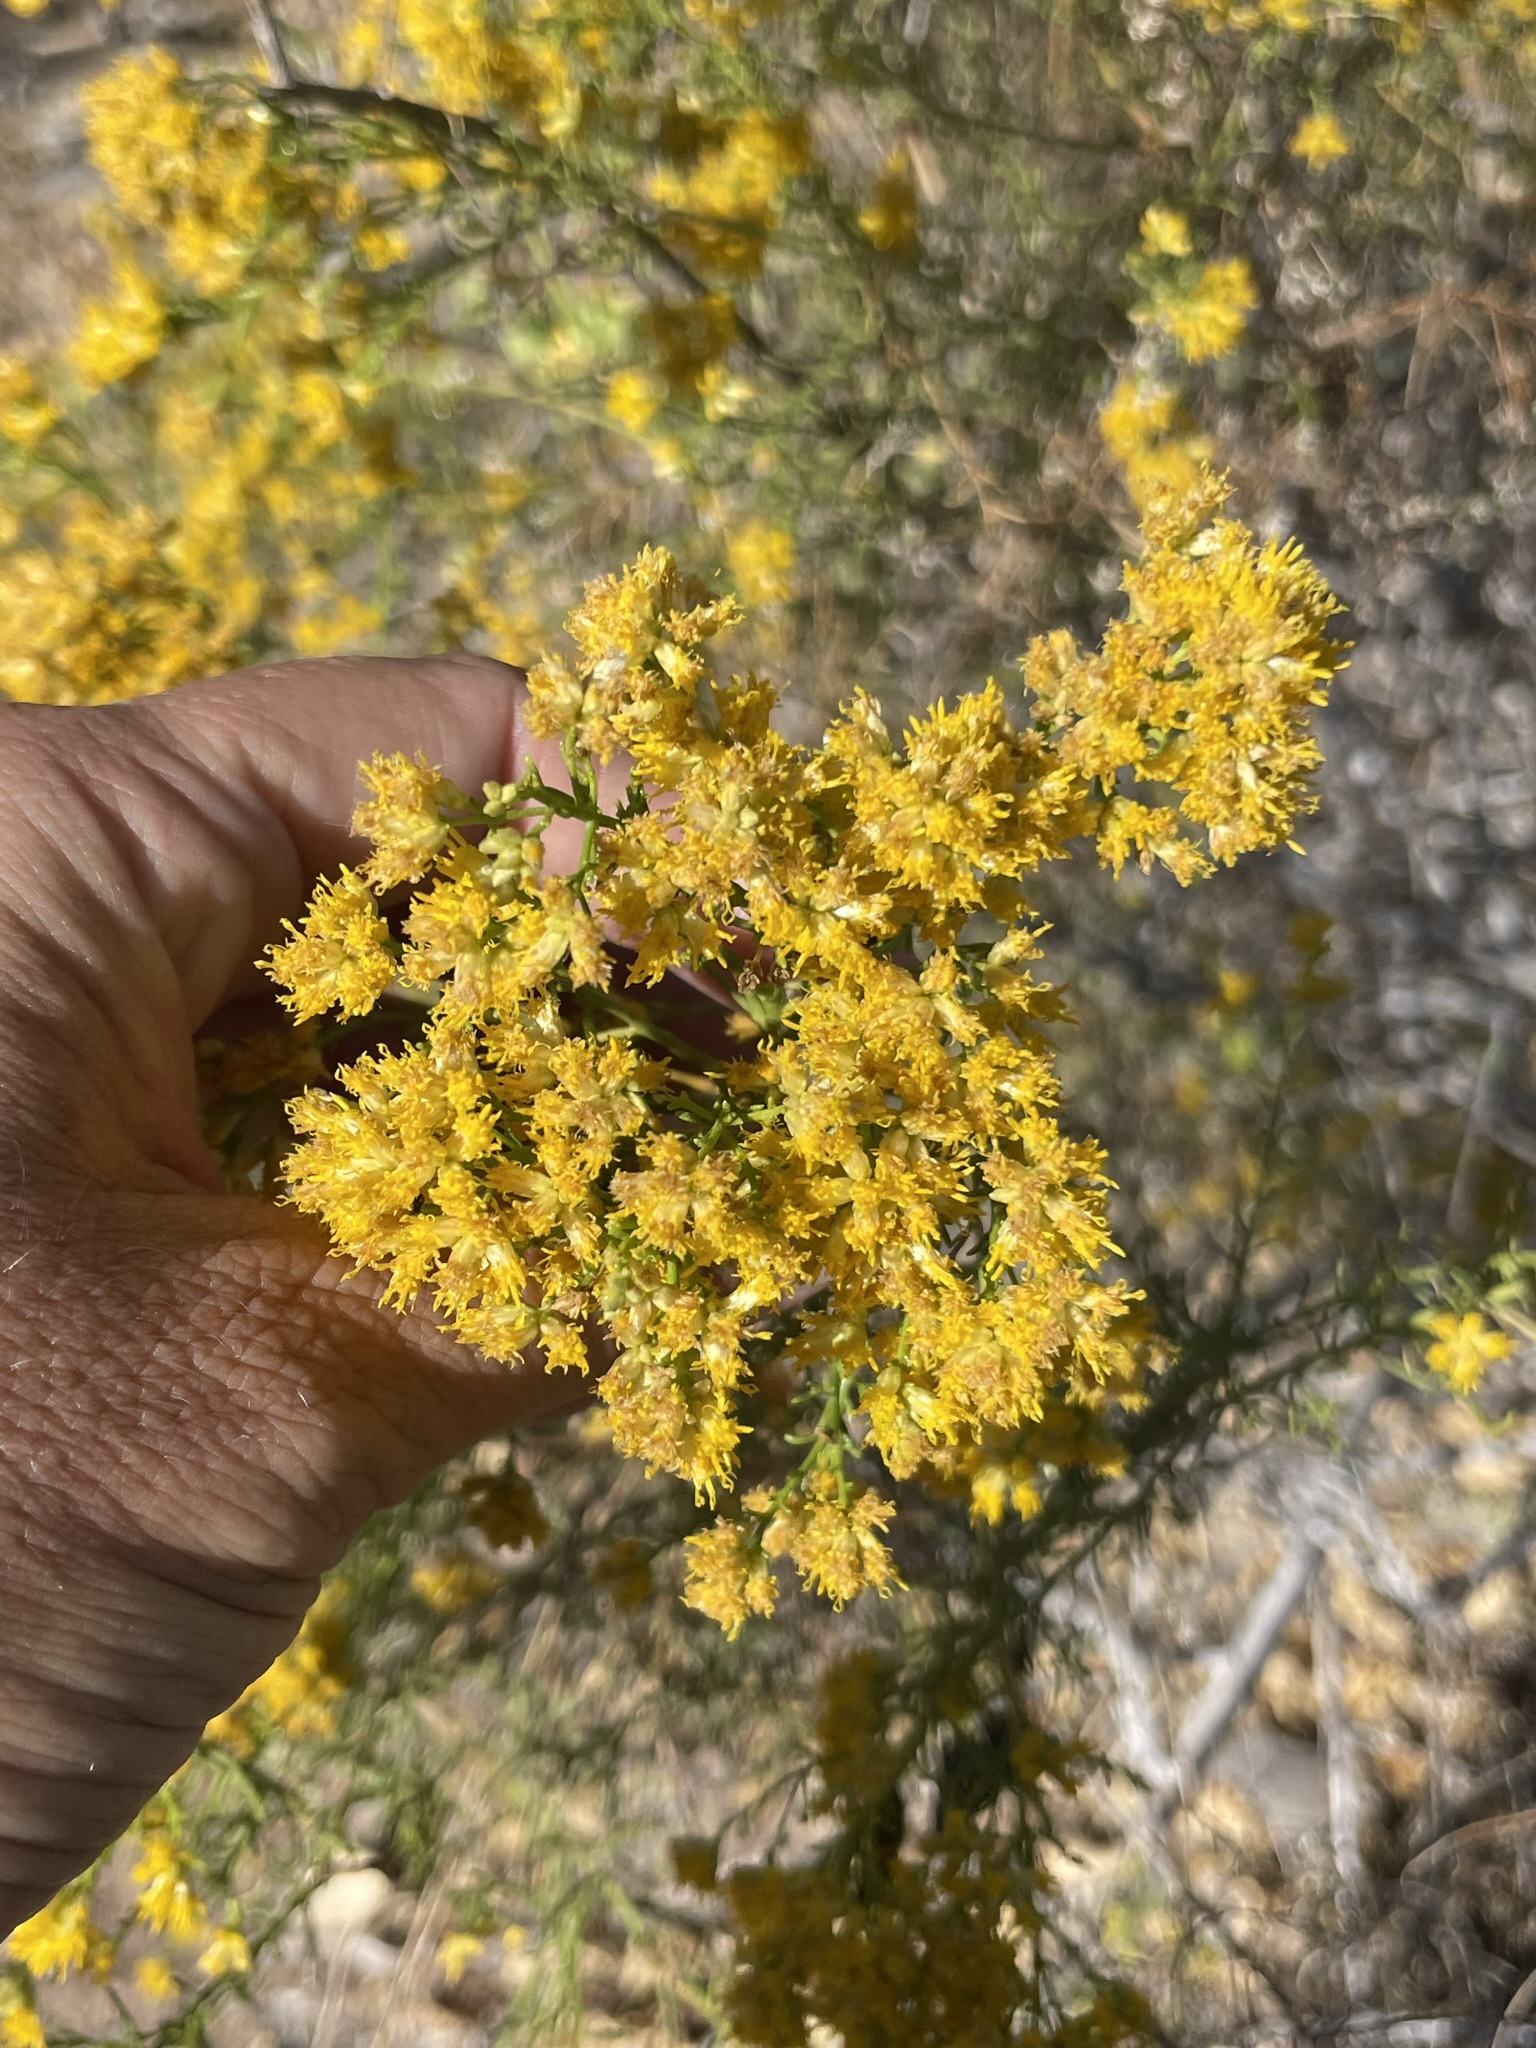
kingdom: Plantae
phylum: Tracheophyta
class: Magnoliopsida
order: Asterales
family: Asteraceae
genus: Gundlachia
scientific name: Gundlachia diffusa
